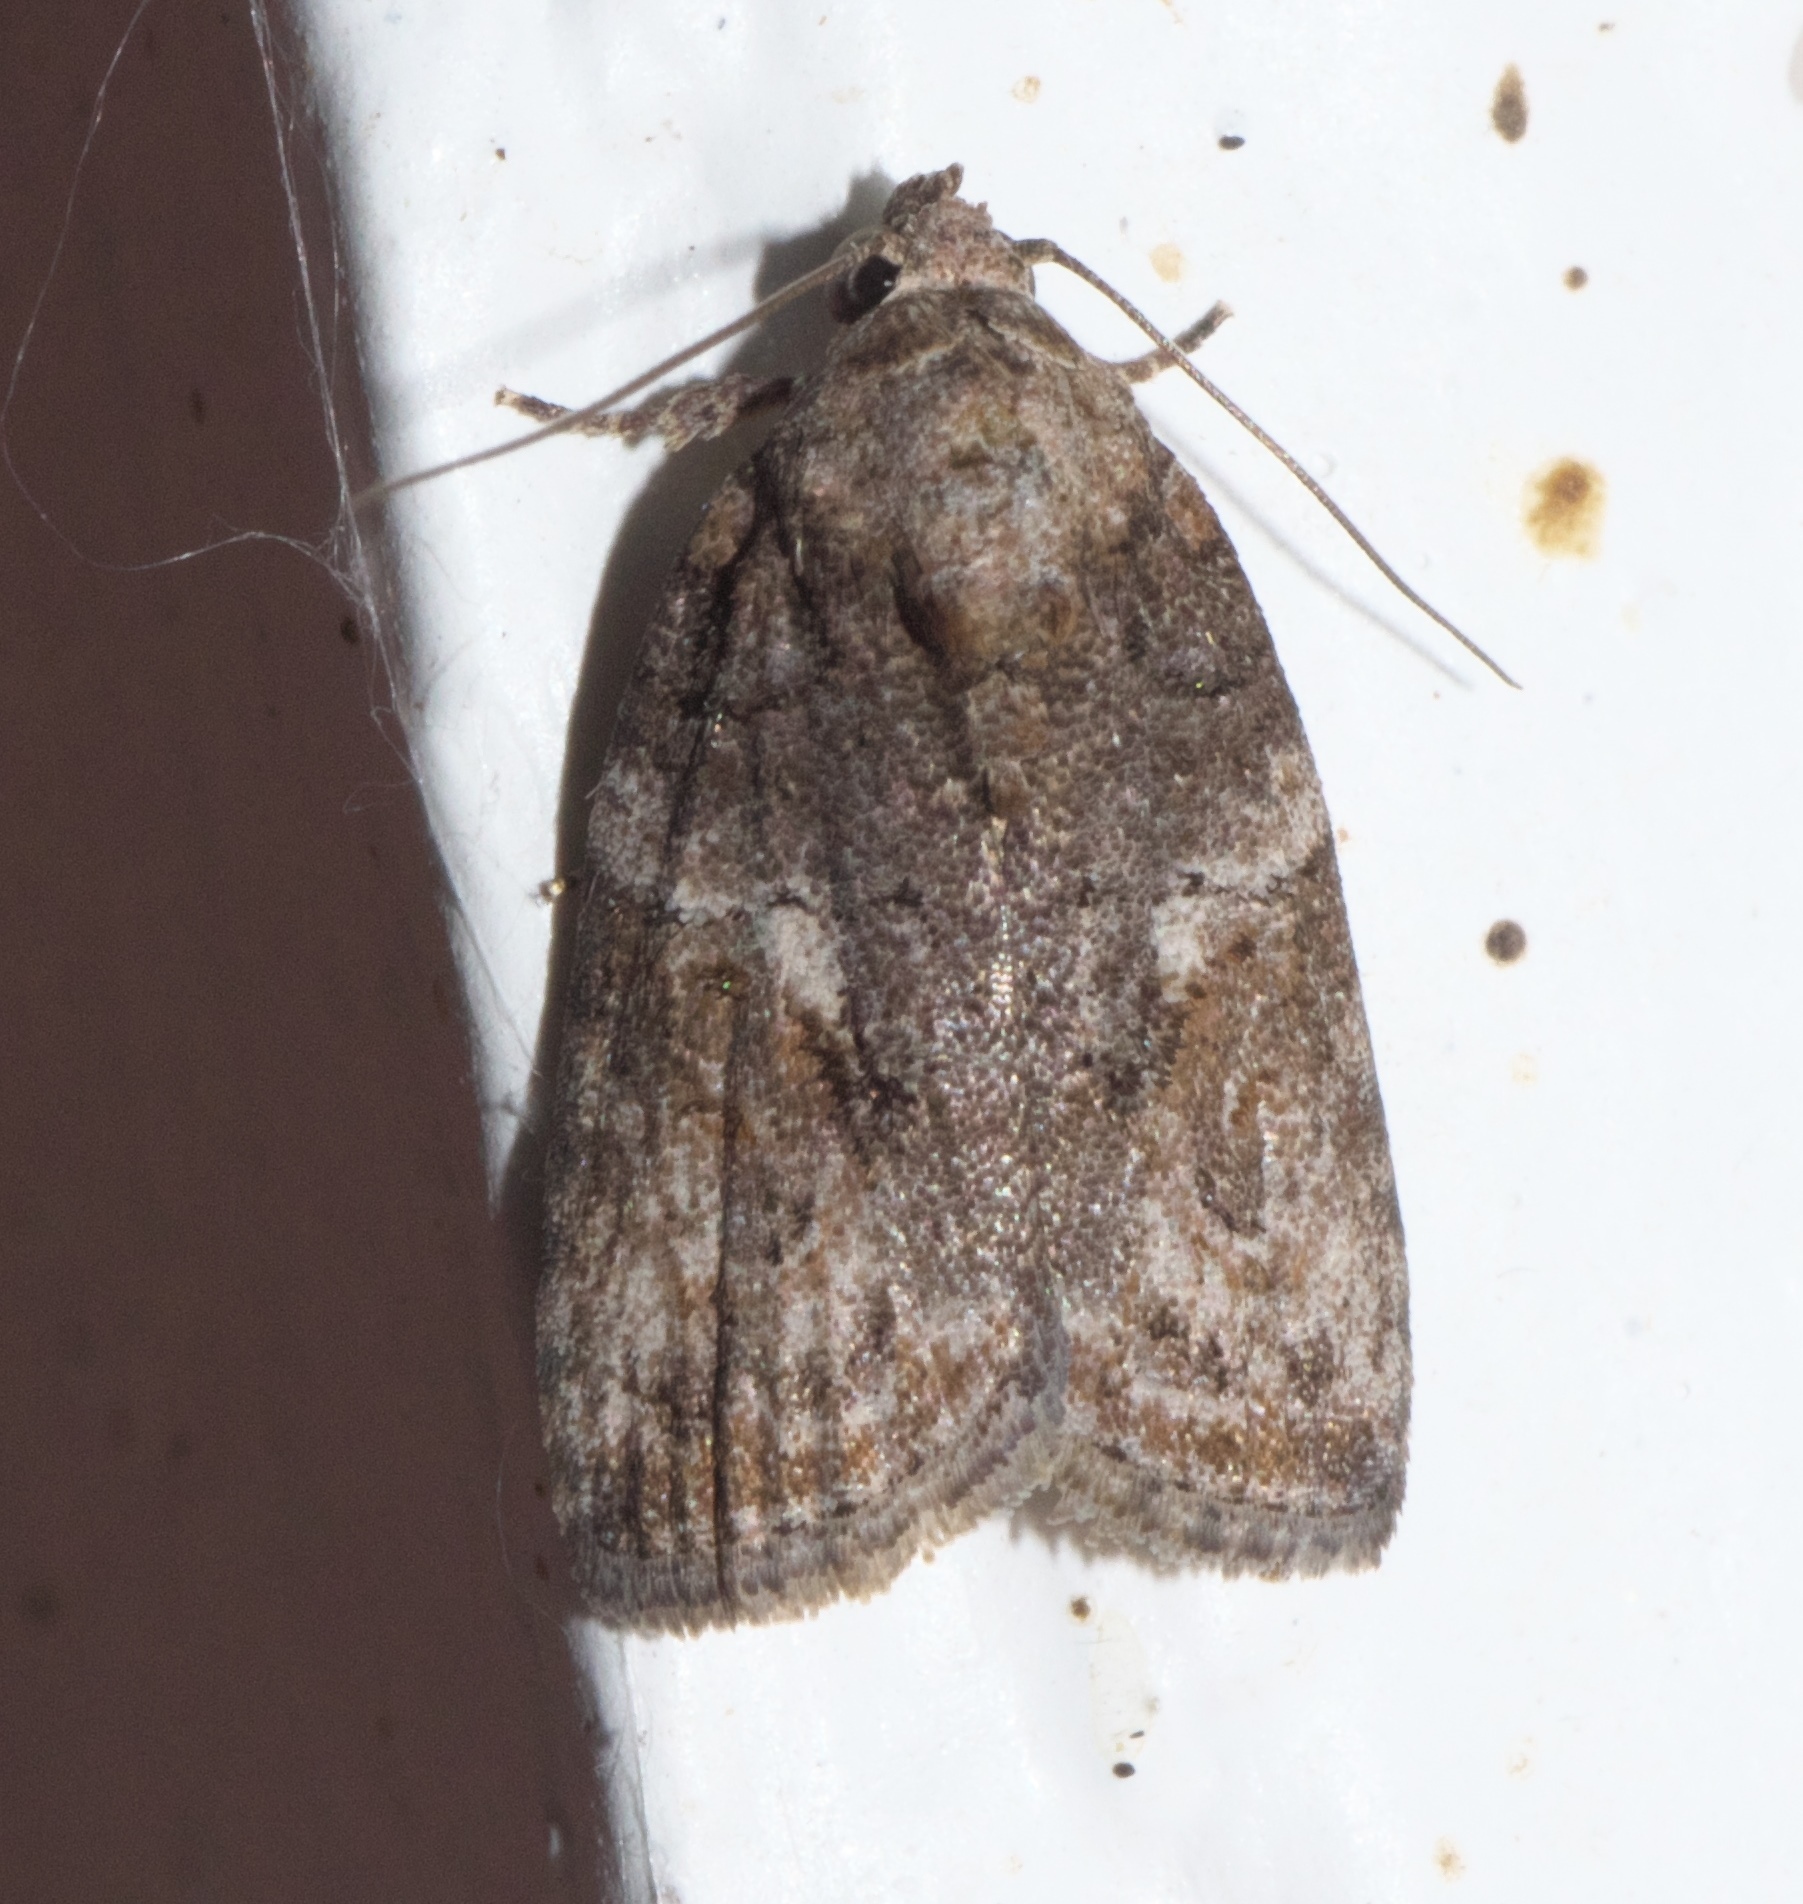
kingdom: Animalia
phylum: Arthropoda
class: Insecta
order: Lepidoptera
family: Nolidae
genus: Garella
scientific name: Garella nilotica
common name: Black-olive caterpillar moth
